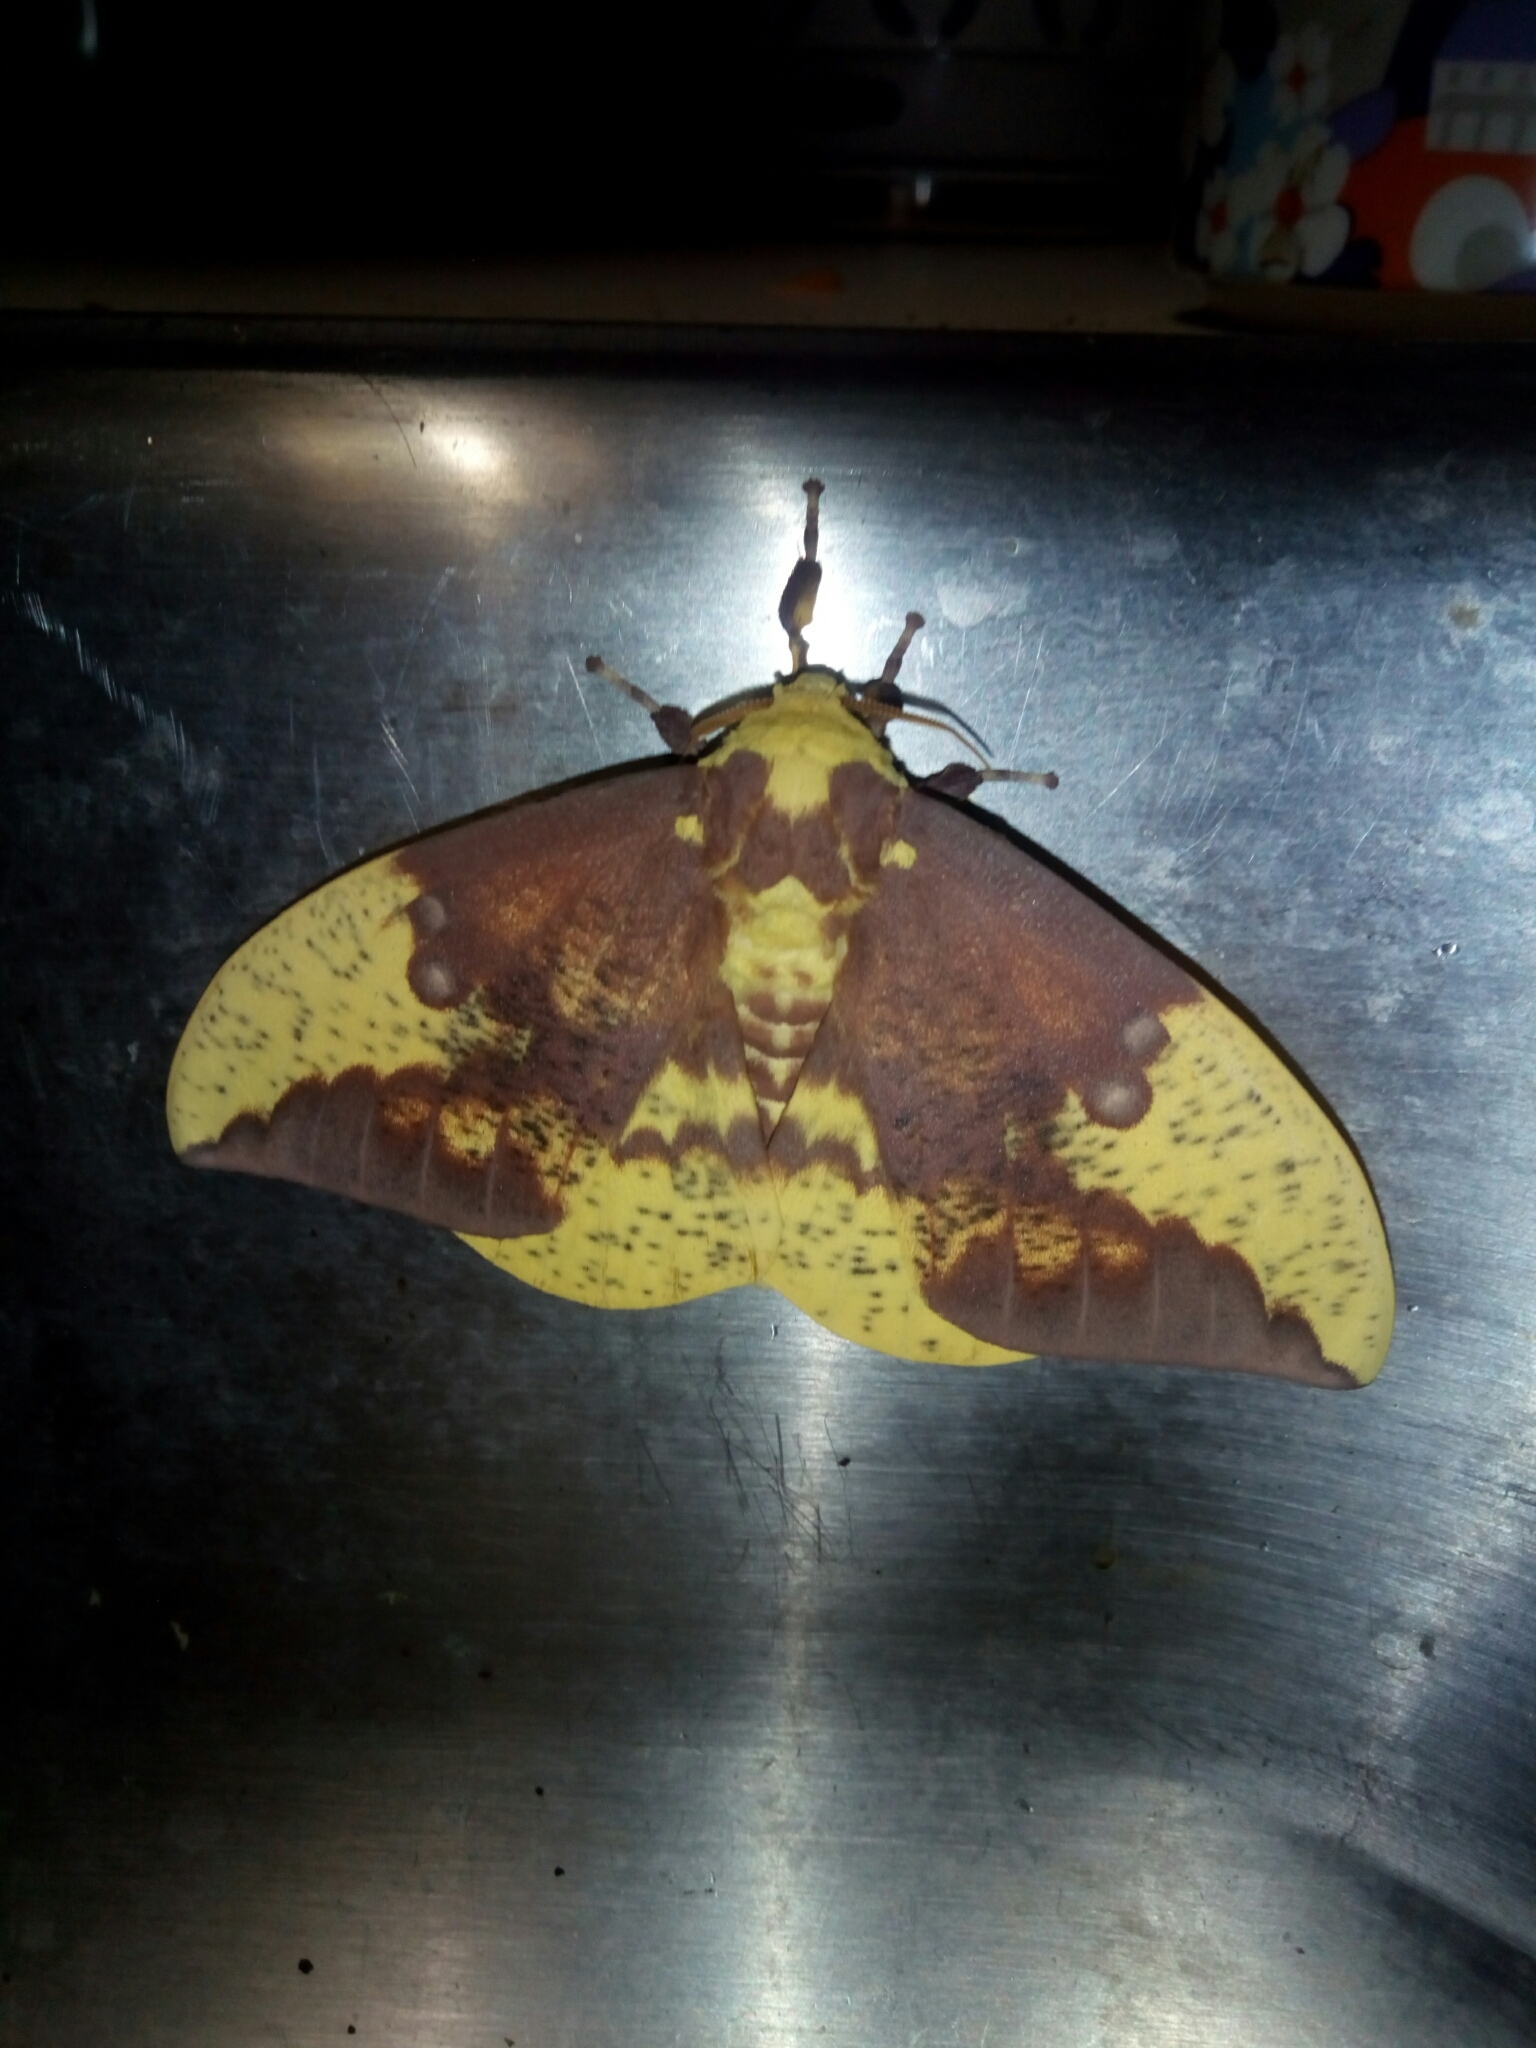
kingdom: Animalia
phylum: Arthropoda
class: Insecta
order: Lepidoptera
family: Saturniidae
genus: Eacles
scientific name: Eacles imperialis
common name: Imperial moth
